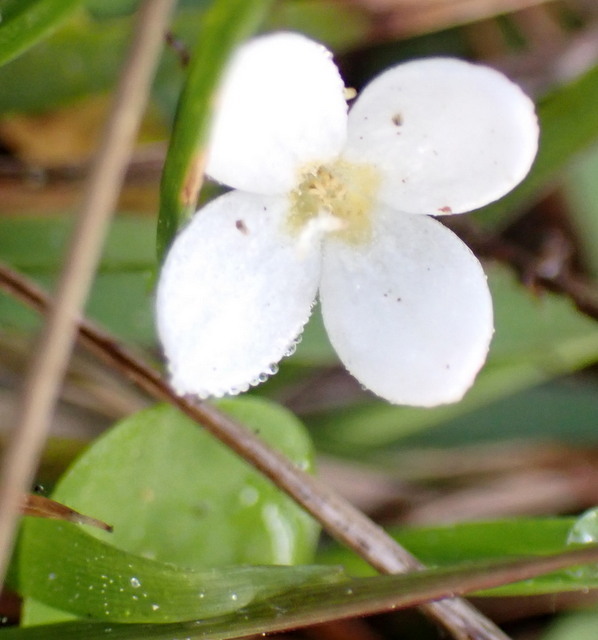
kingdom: Plantae
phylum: Tracheophyta
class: Magnoliopsida
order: Gentianales
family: Rubiaceae
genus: Houstonia
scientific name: Houstonia procumbens
